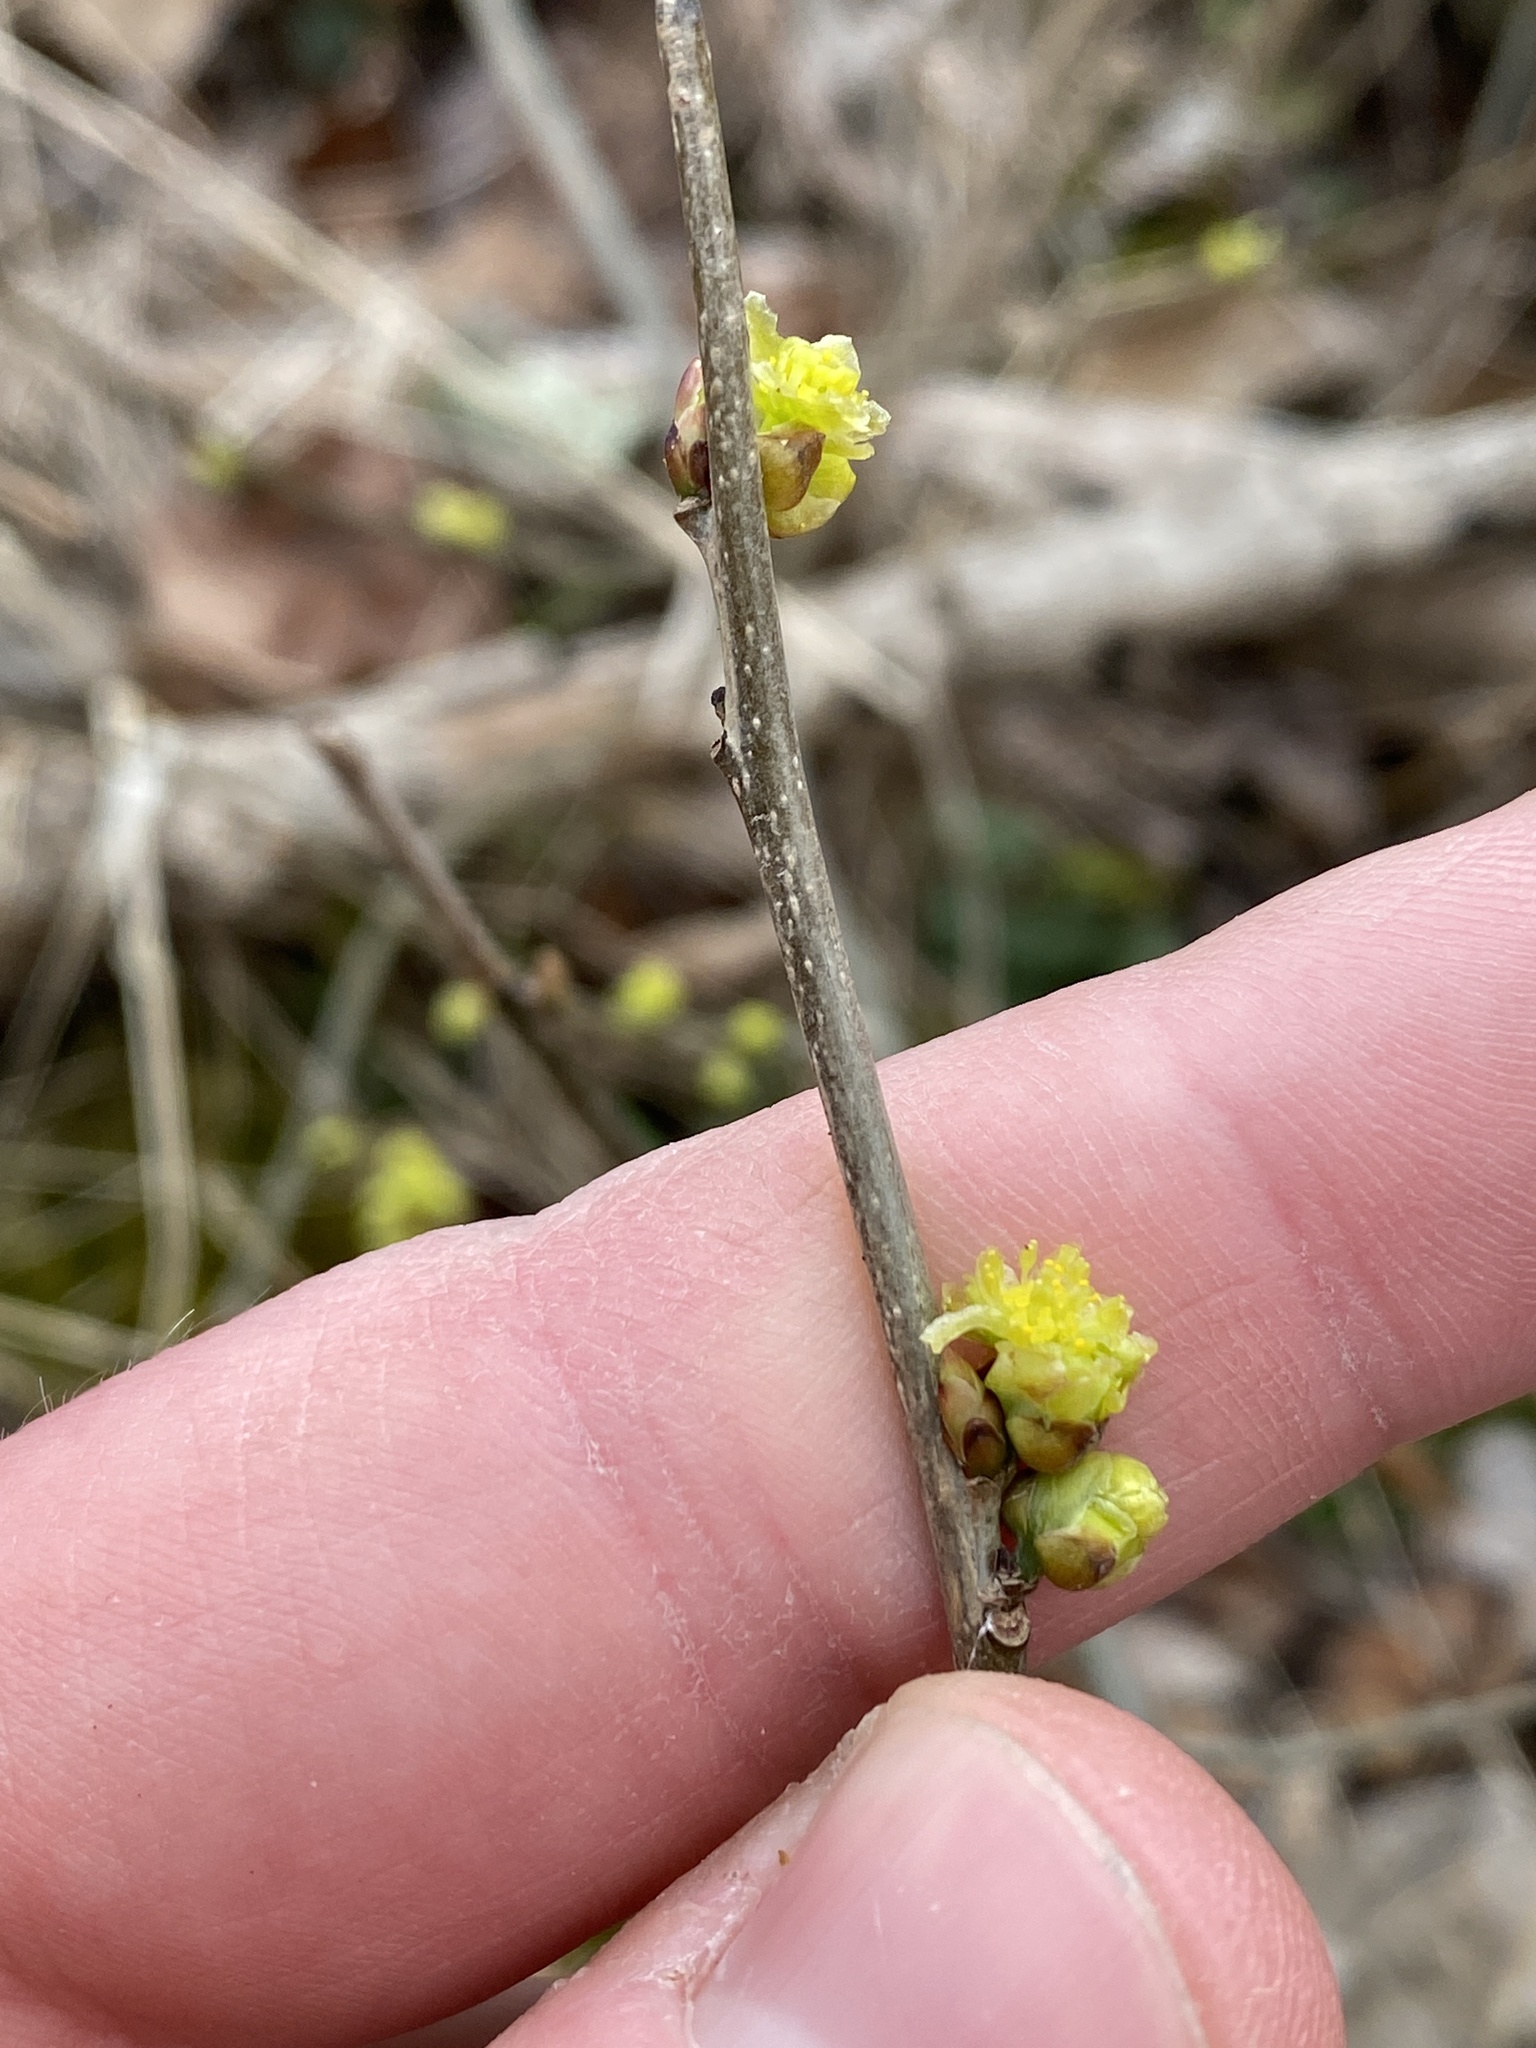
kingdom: Plantae
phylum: Tracheophyta
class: Magnoliopsida
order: Laurales
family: Lauraceae
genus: Lindera
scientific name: Lindera benzoin
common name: Spicebush
